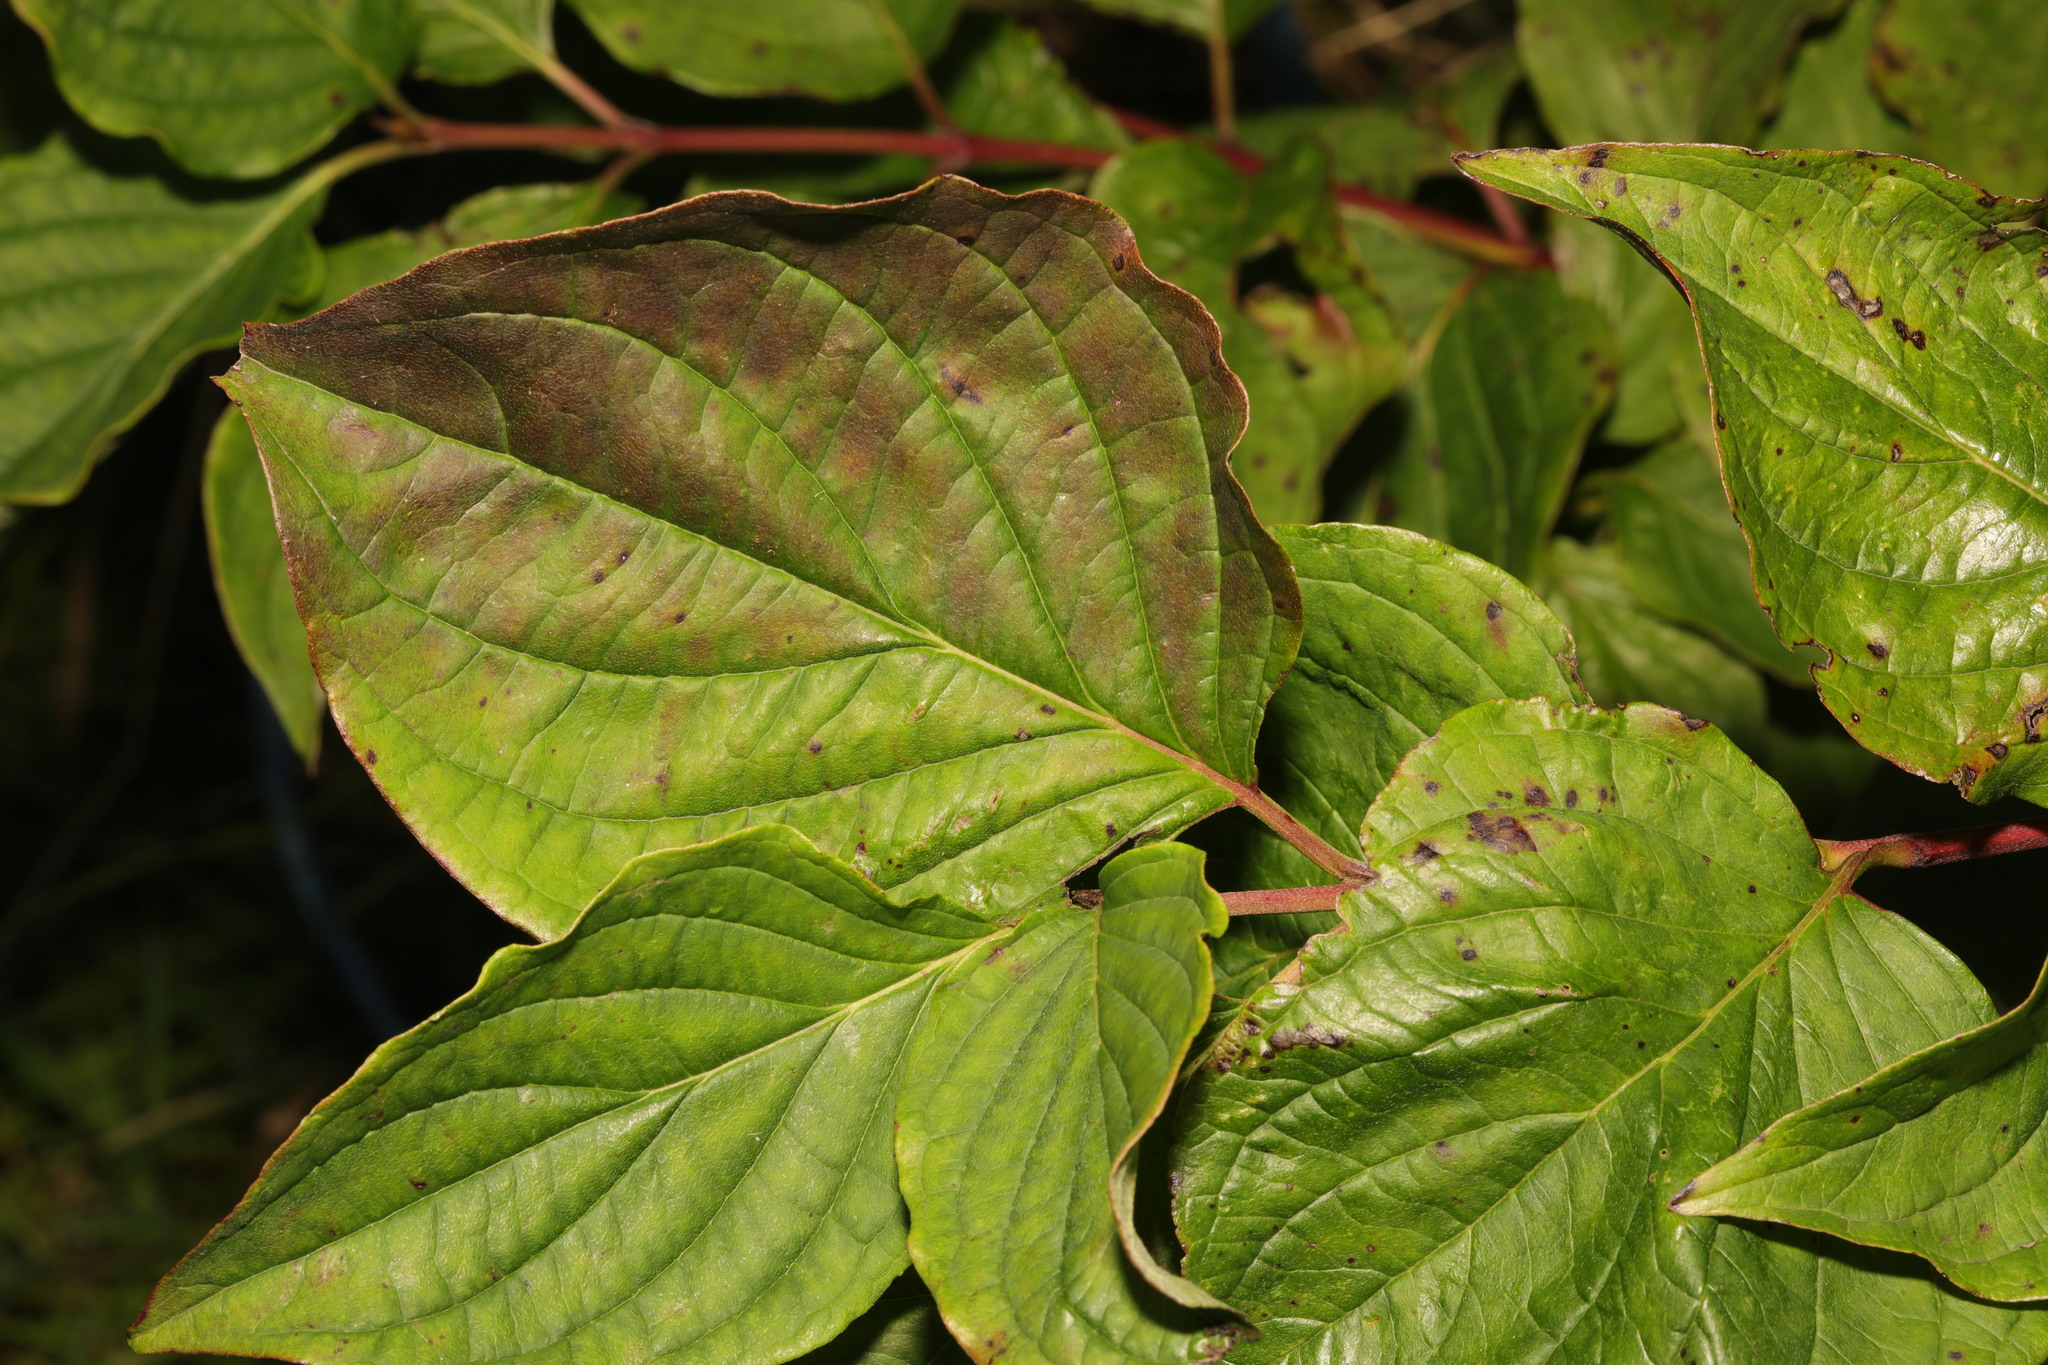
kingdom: Plantae
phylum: Tracheophyta
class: Magnoliopsida
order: Cornales
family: Cornaceae
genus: Cornus
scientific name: Cornus sanguinea
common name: Dogwood
